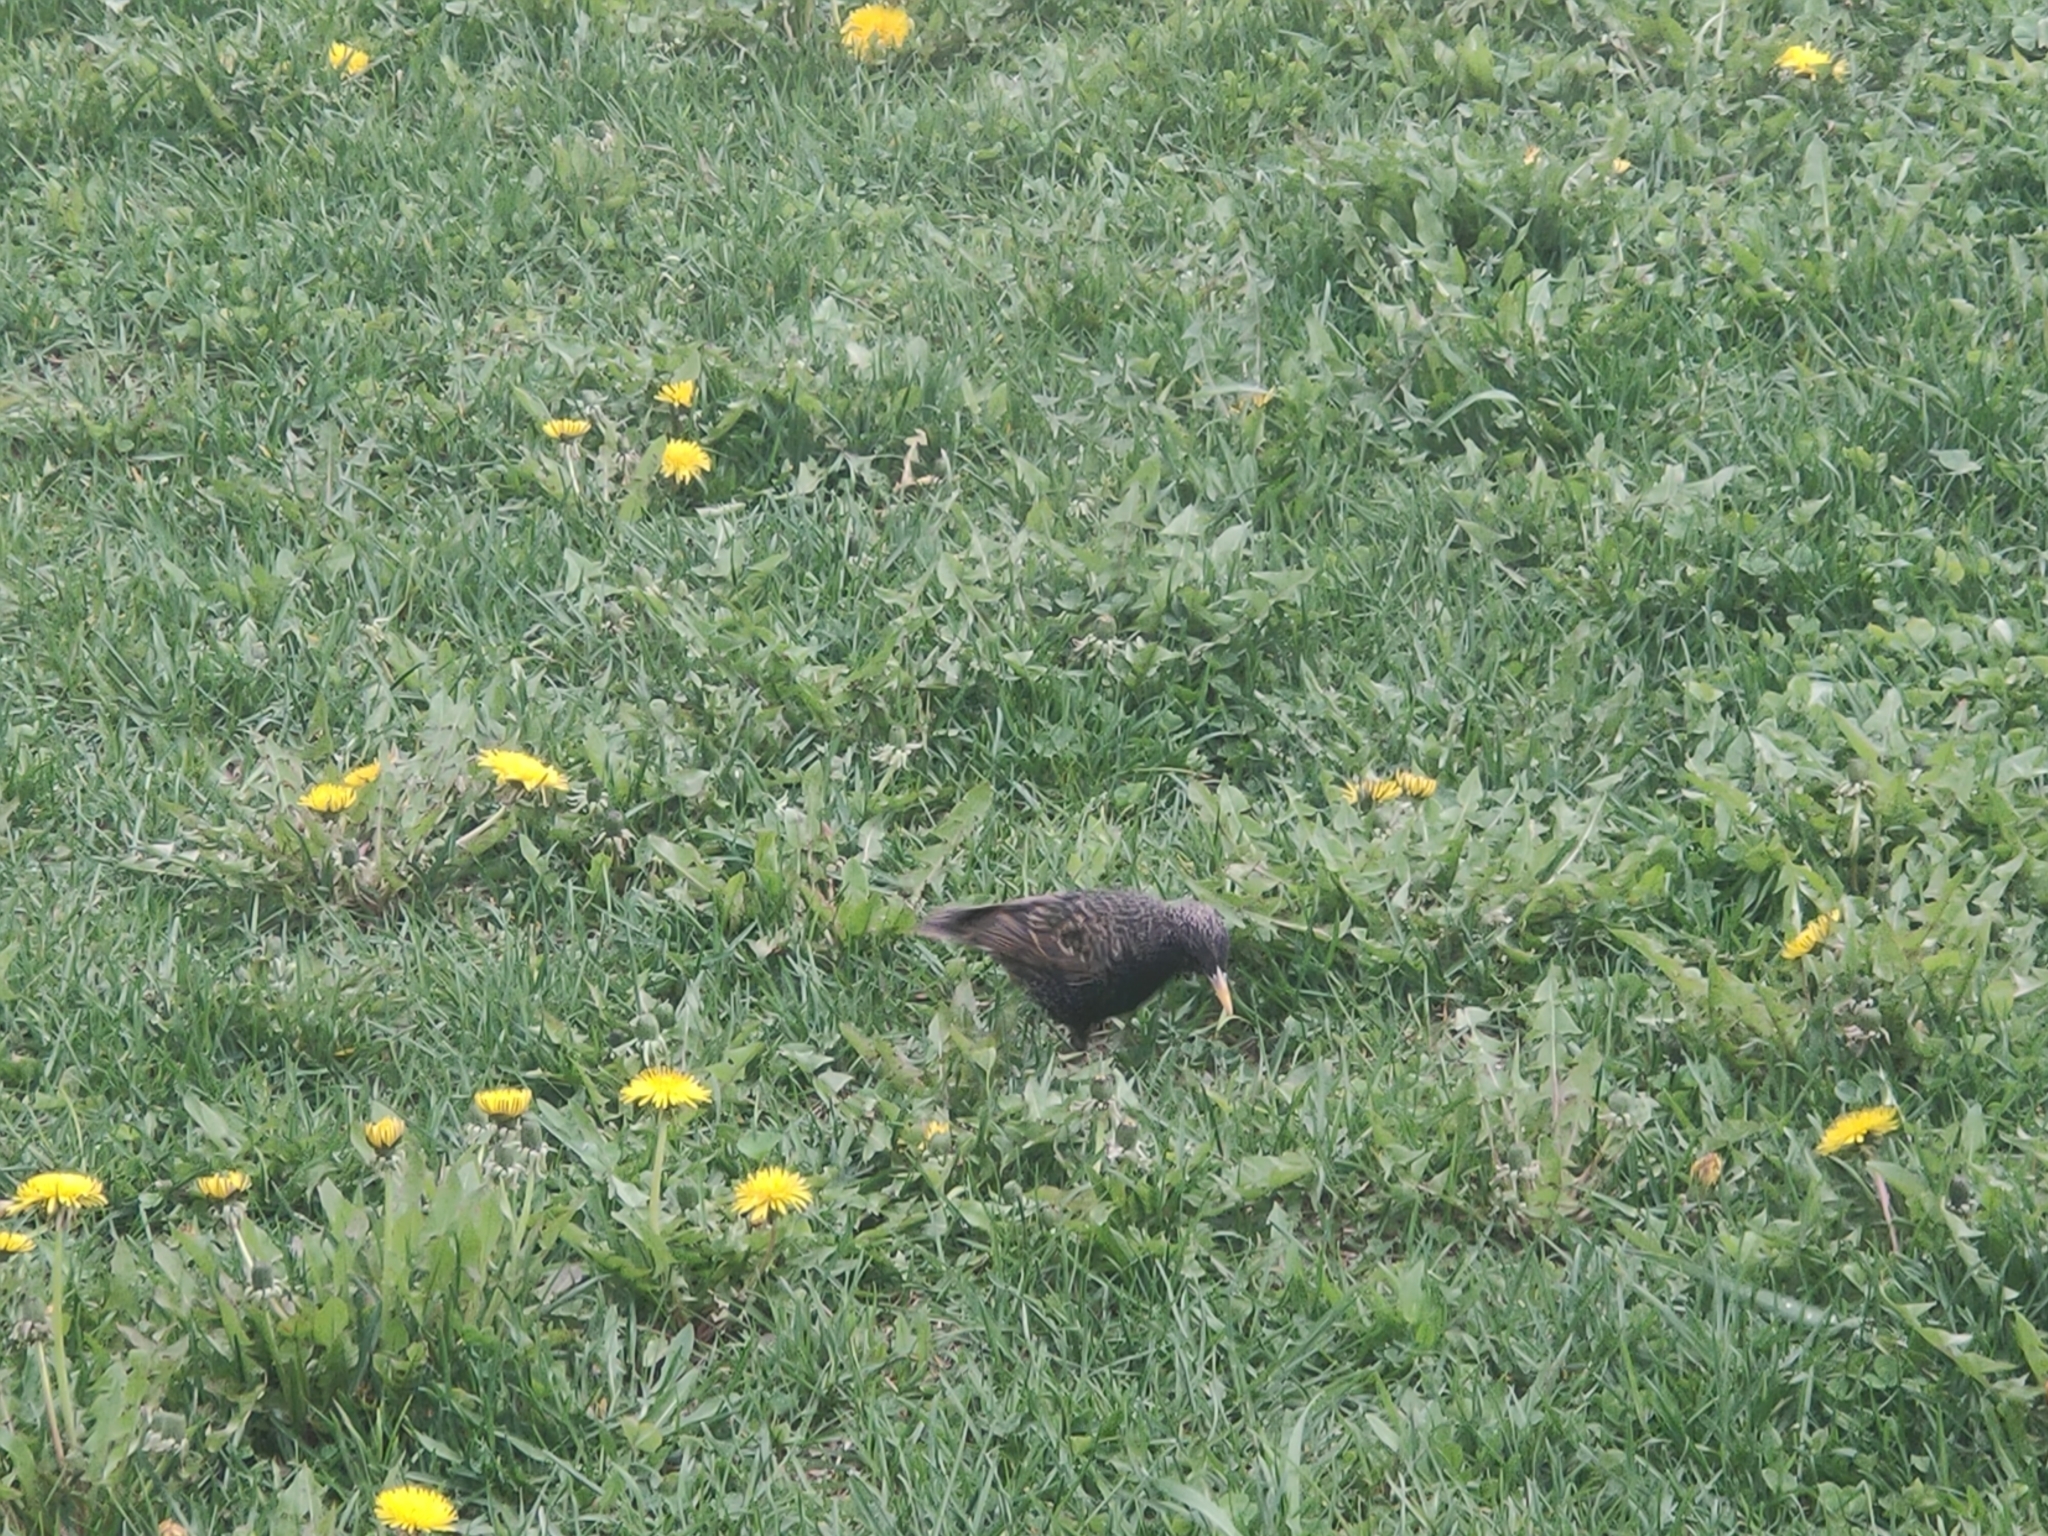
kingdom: Animalia
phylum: Chordata
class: Aves
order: Passeriformes
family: Sturnidae
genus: Sturnus
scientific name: Sturnus vulgaris
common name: Common starling
